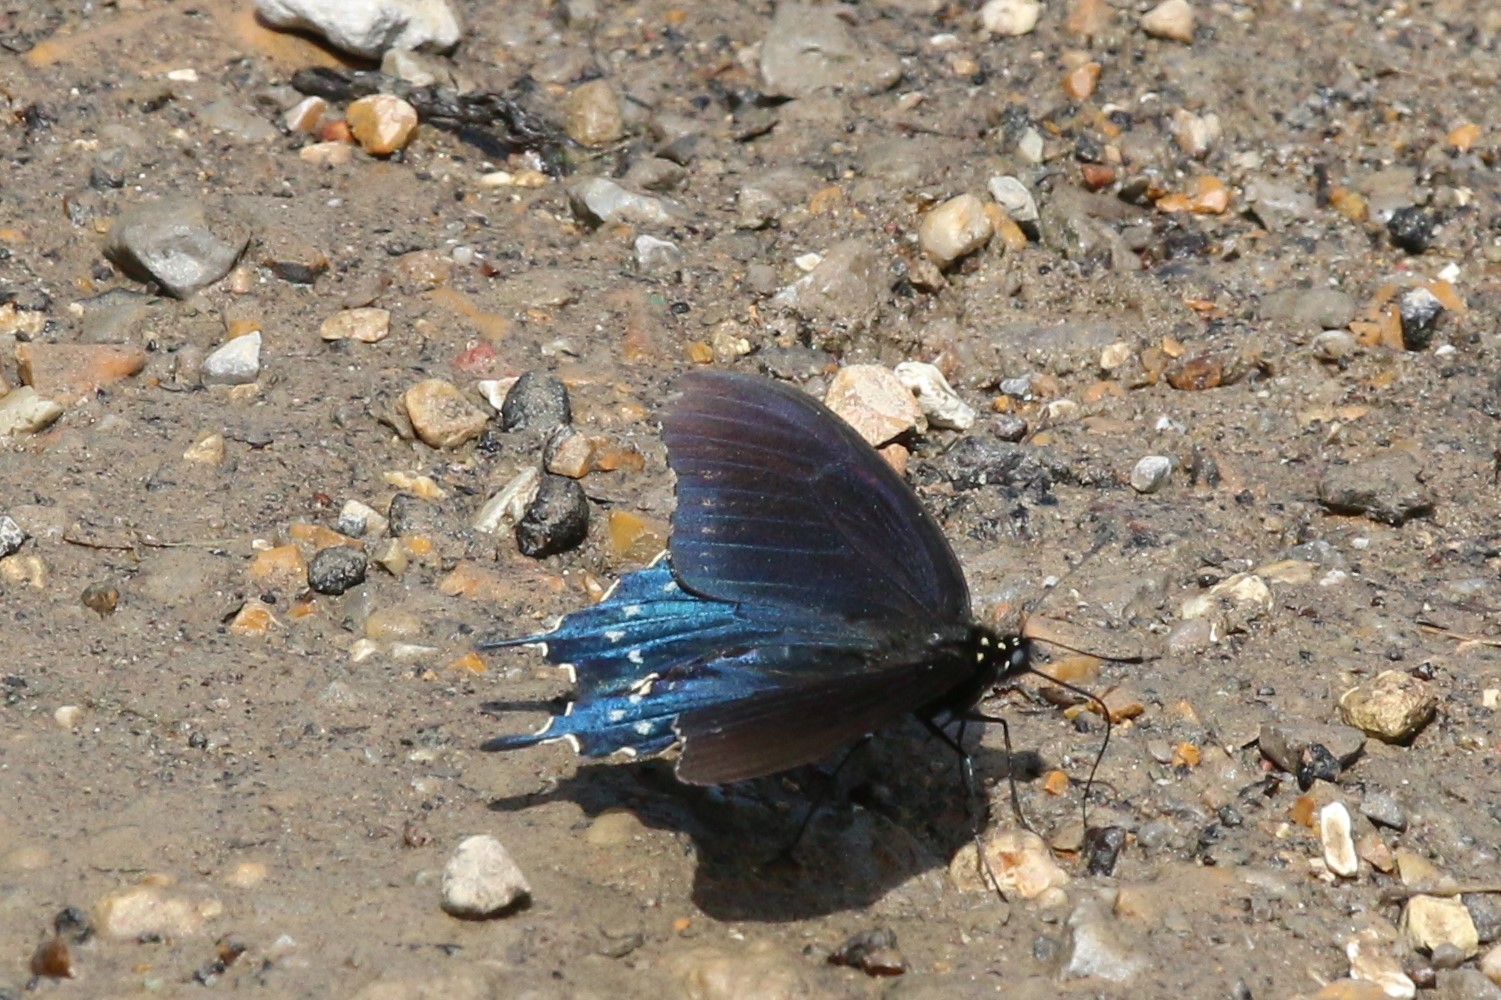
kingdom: Animalia
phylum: Arthropoda
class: Insecta
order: Lepidoptera
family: Papilionidae
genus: Battus
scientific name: Battus philenor
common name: Pipevine swallowtail
